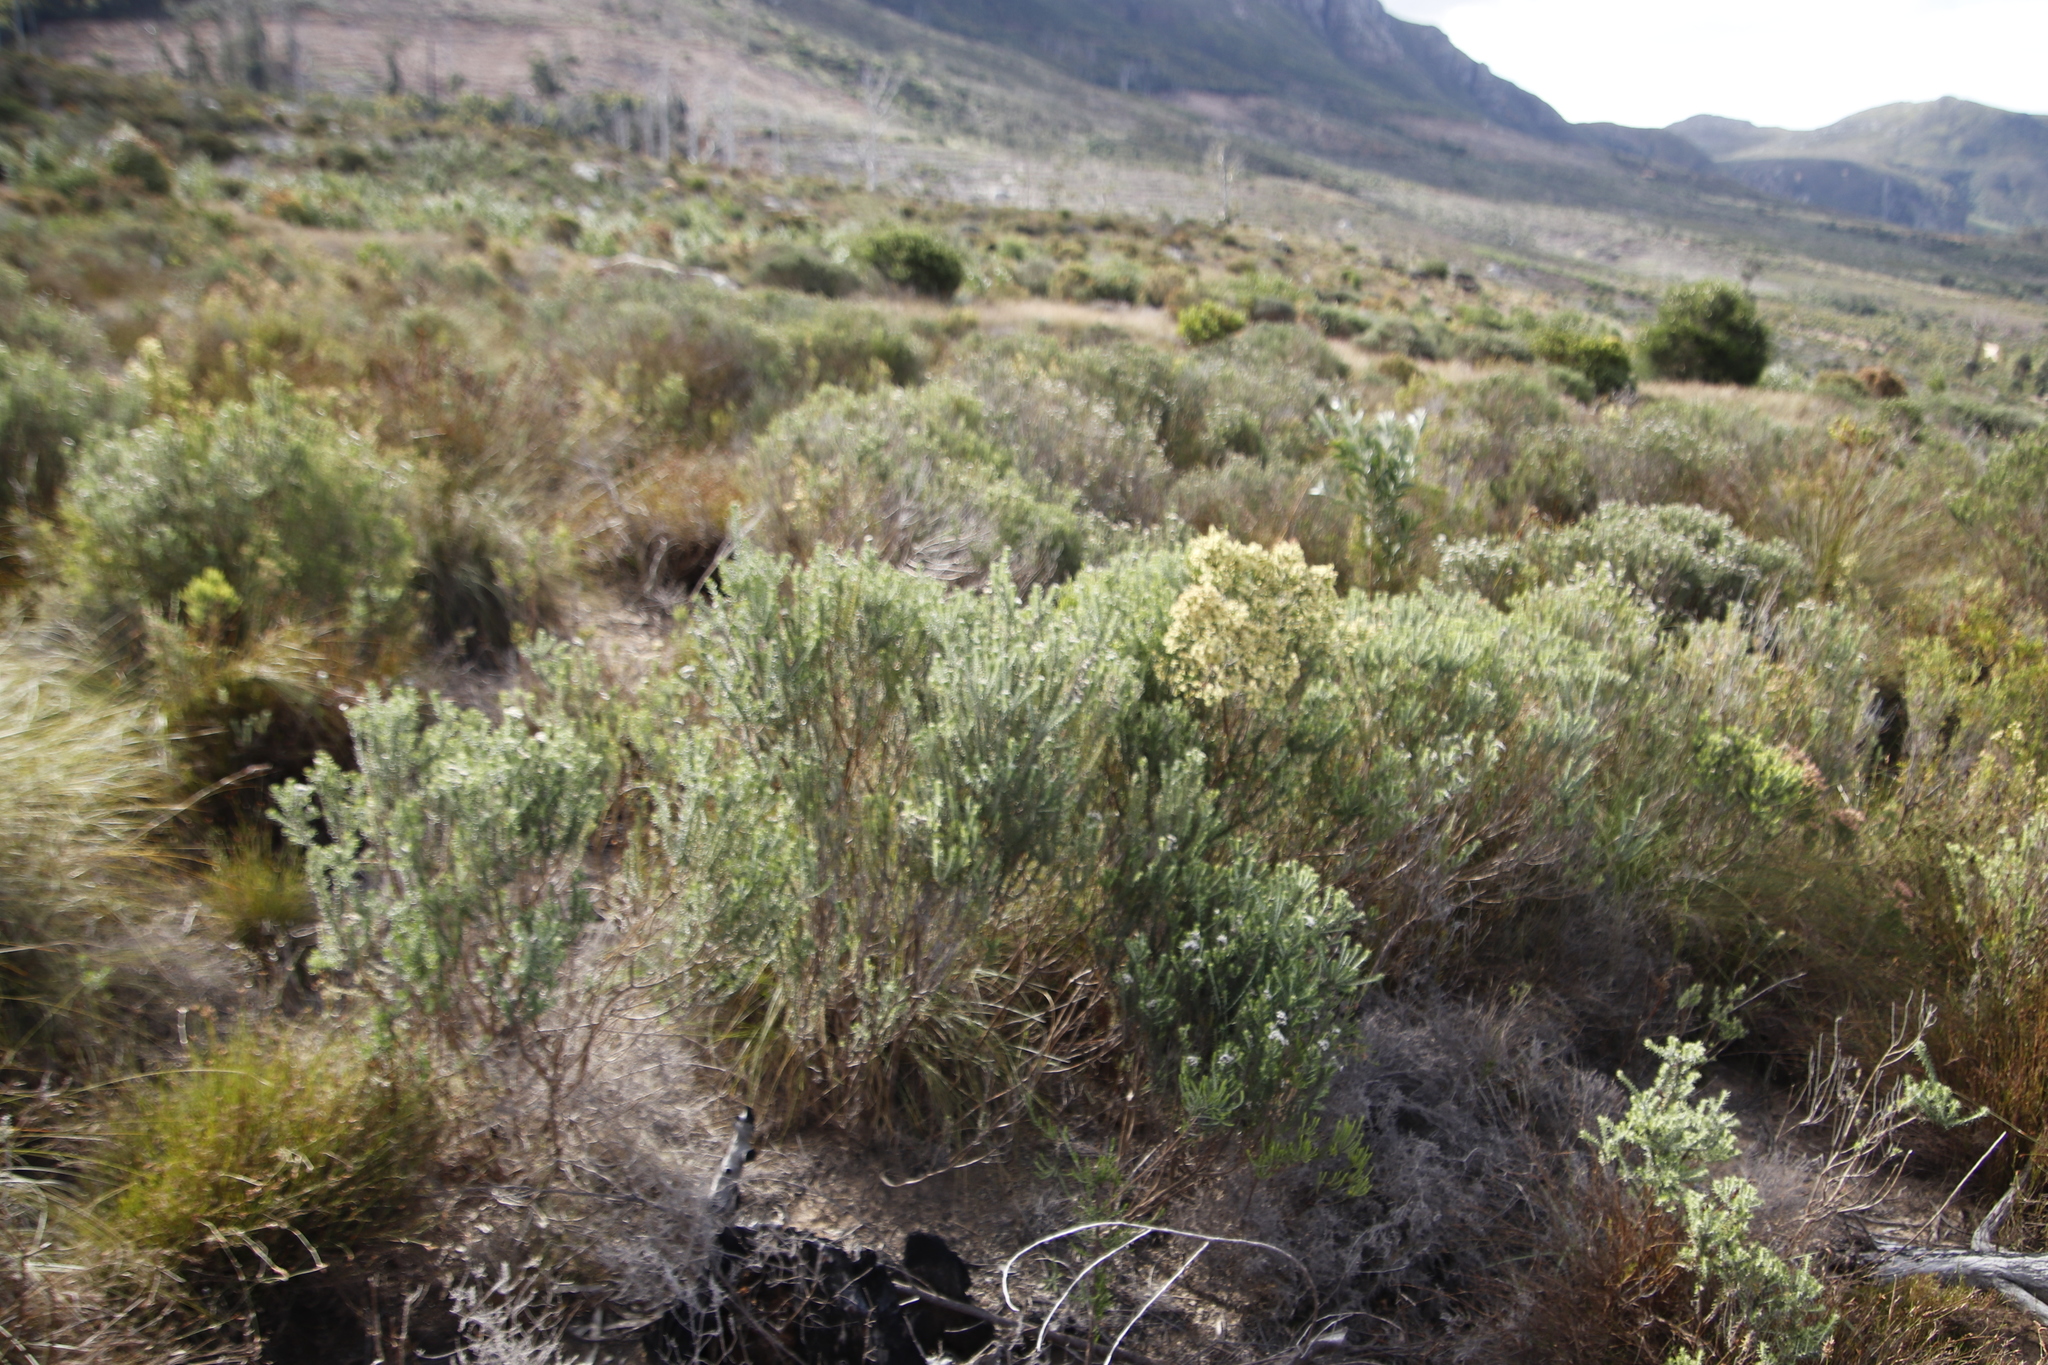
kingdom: Plantae
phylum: Tracheophyta
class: Magnoliopsida
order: Asterales
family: Asteraceae
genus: Metalasia
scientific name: Metalasia densa
